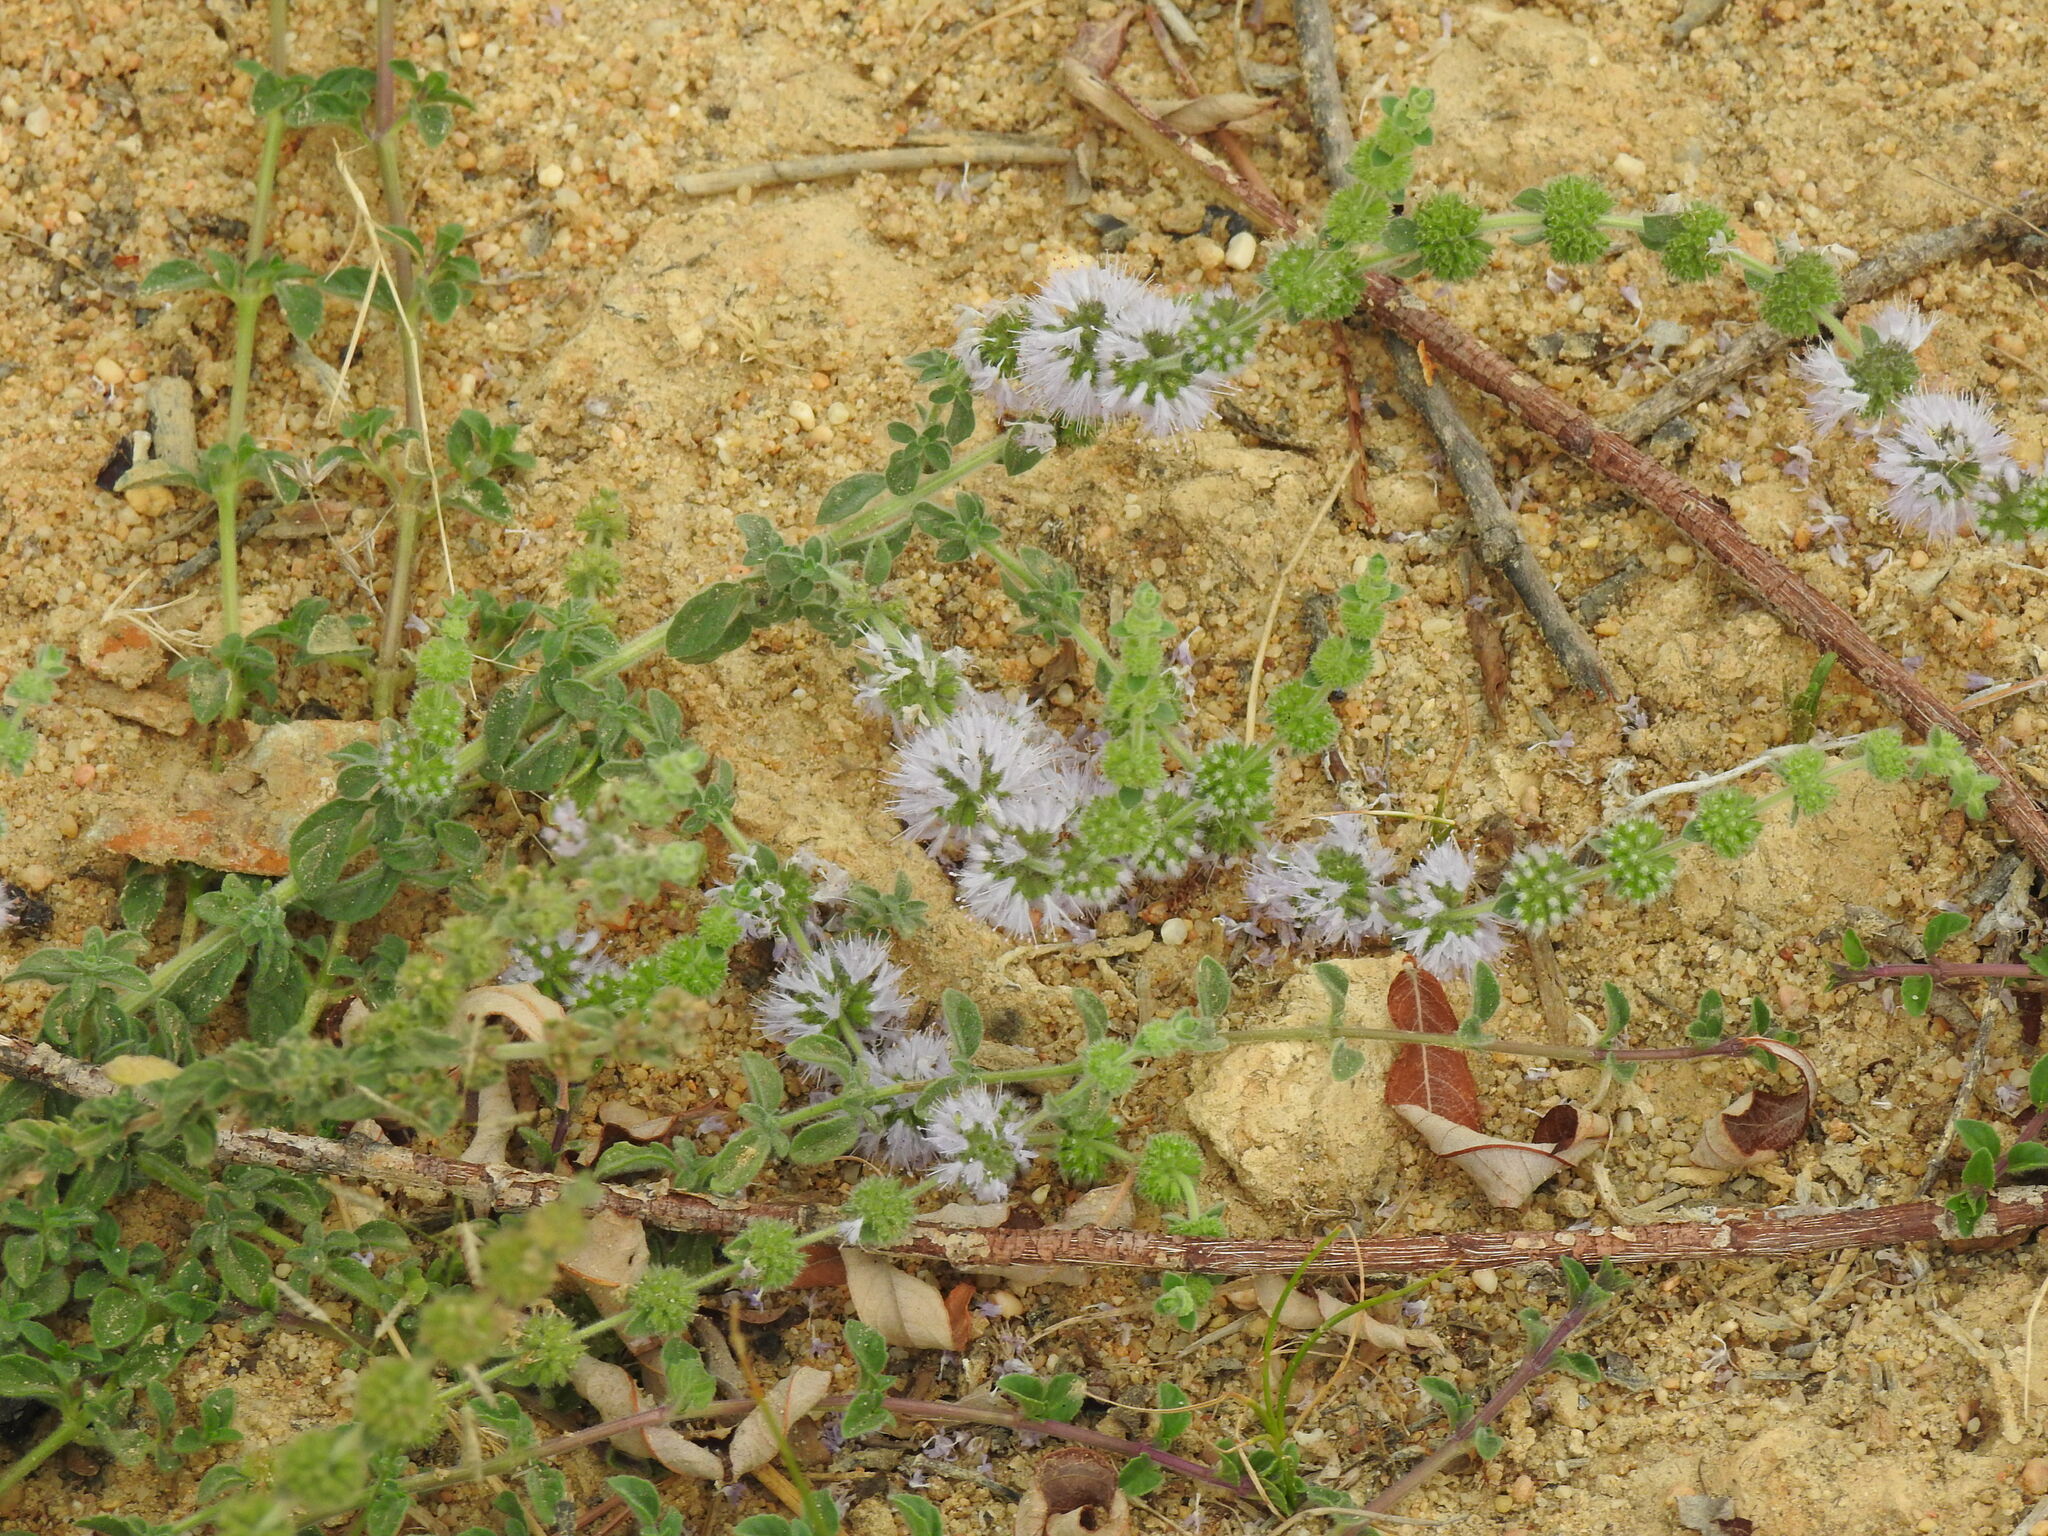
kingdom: Plantae
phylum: Tracheophyta
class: Magnoliopsida
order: Lamiales
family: Lamiaceae
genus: Mentha
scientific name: Mentha pulegium
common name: Pennyroyal
